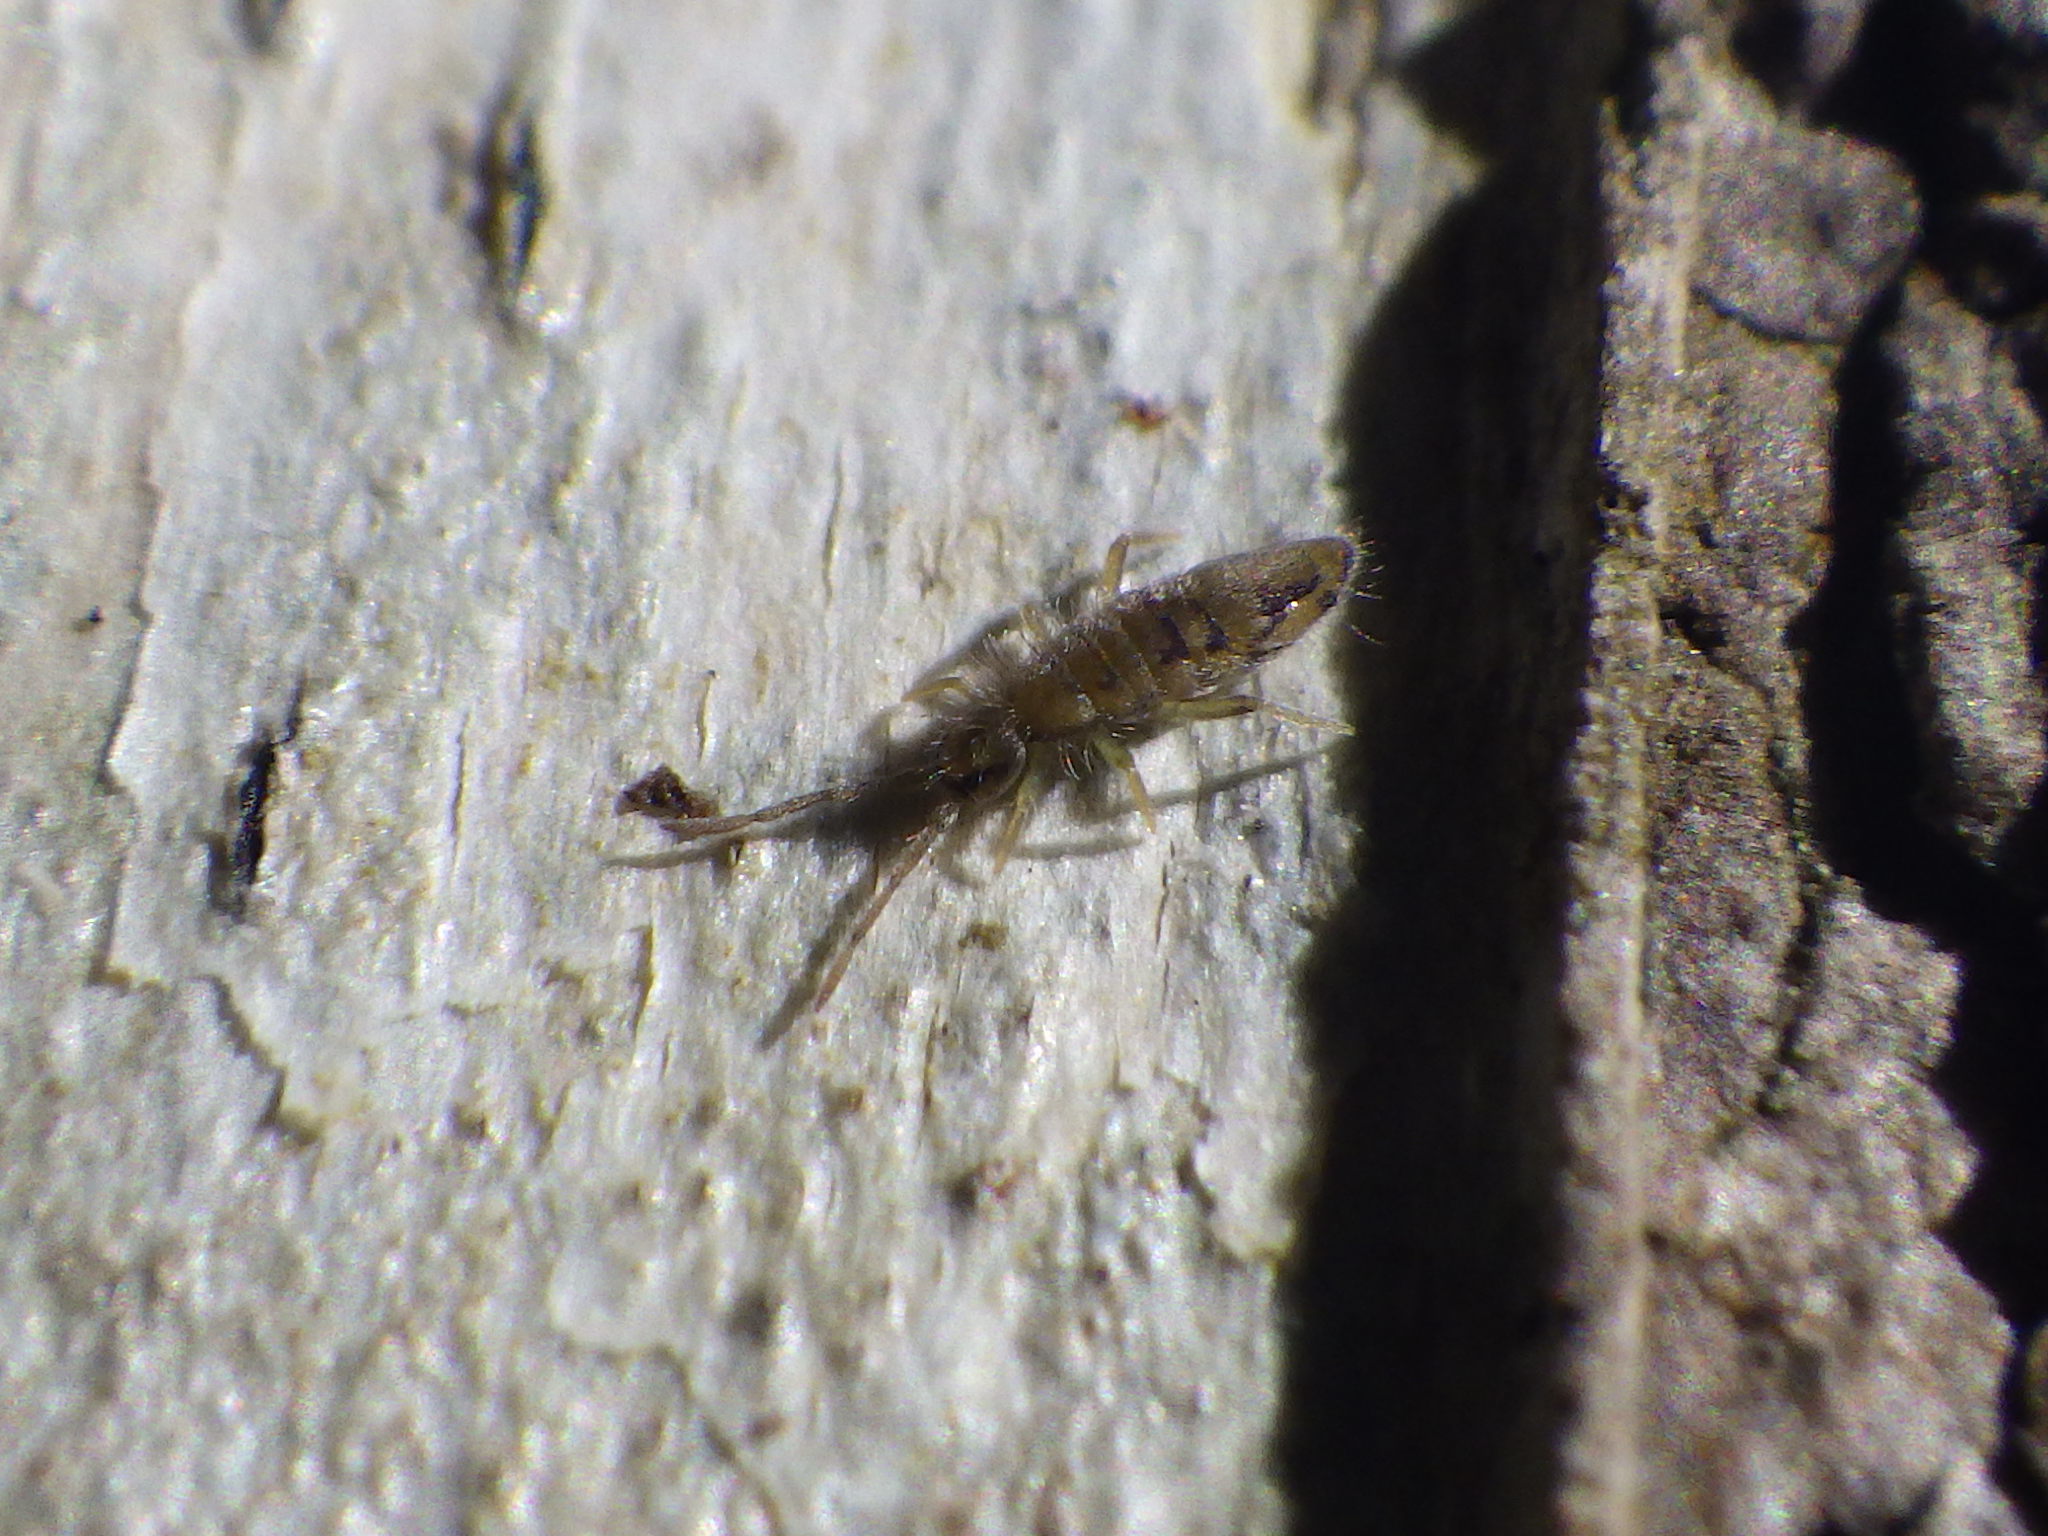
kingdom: Animalia
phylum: Arthropoda
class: Collembola
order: Entomobryomorpha
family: Entomobryidae
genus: Entomobrya
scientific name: Entomobrya nivalis
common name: Cosmopolitan springtail
